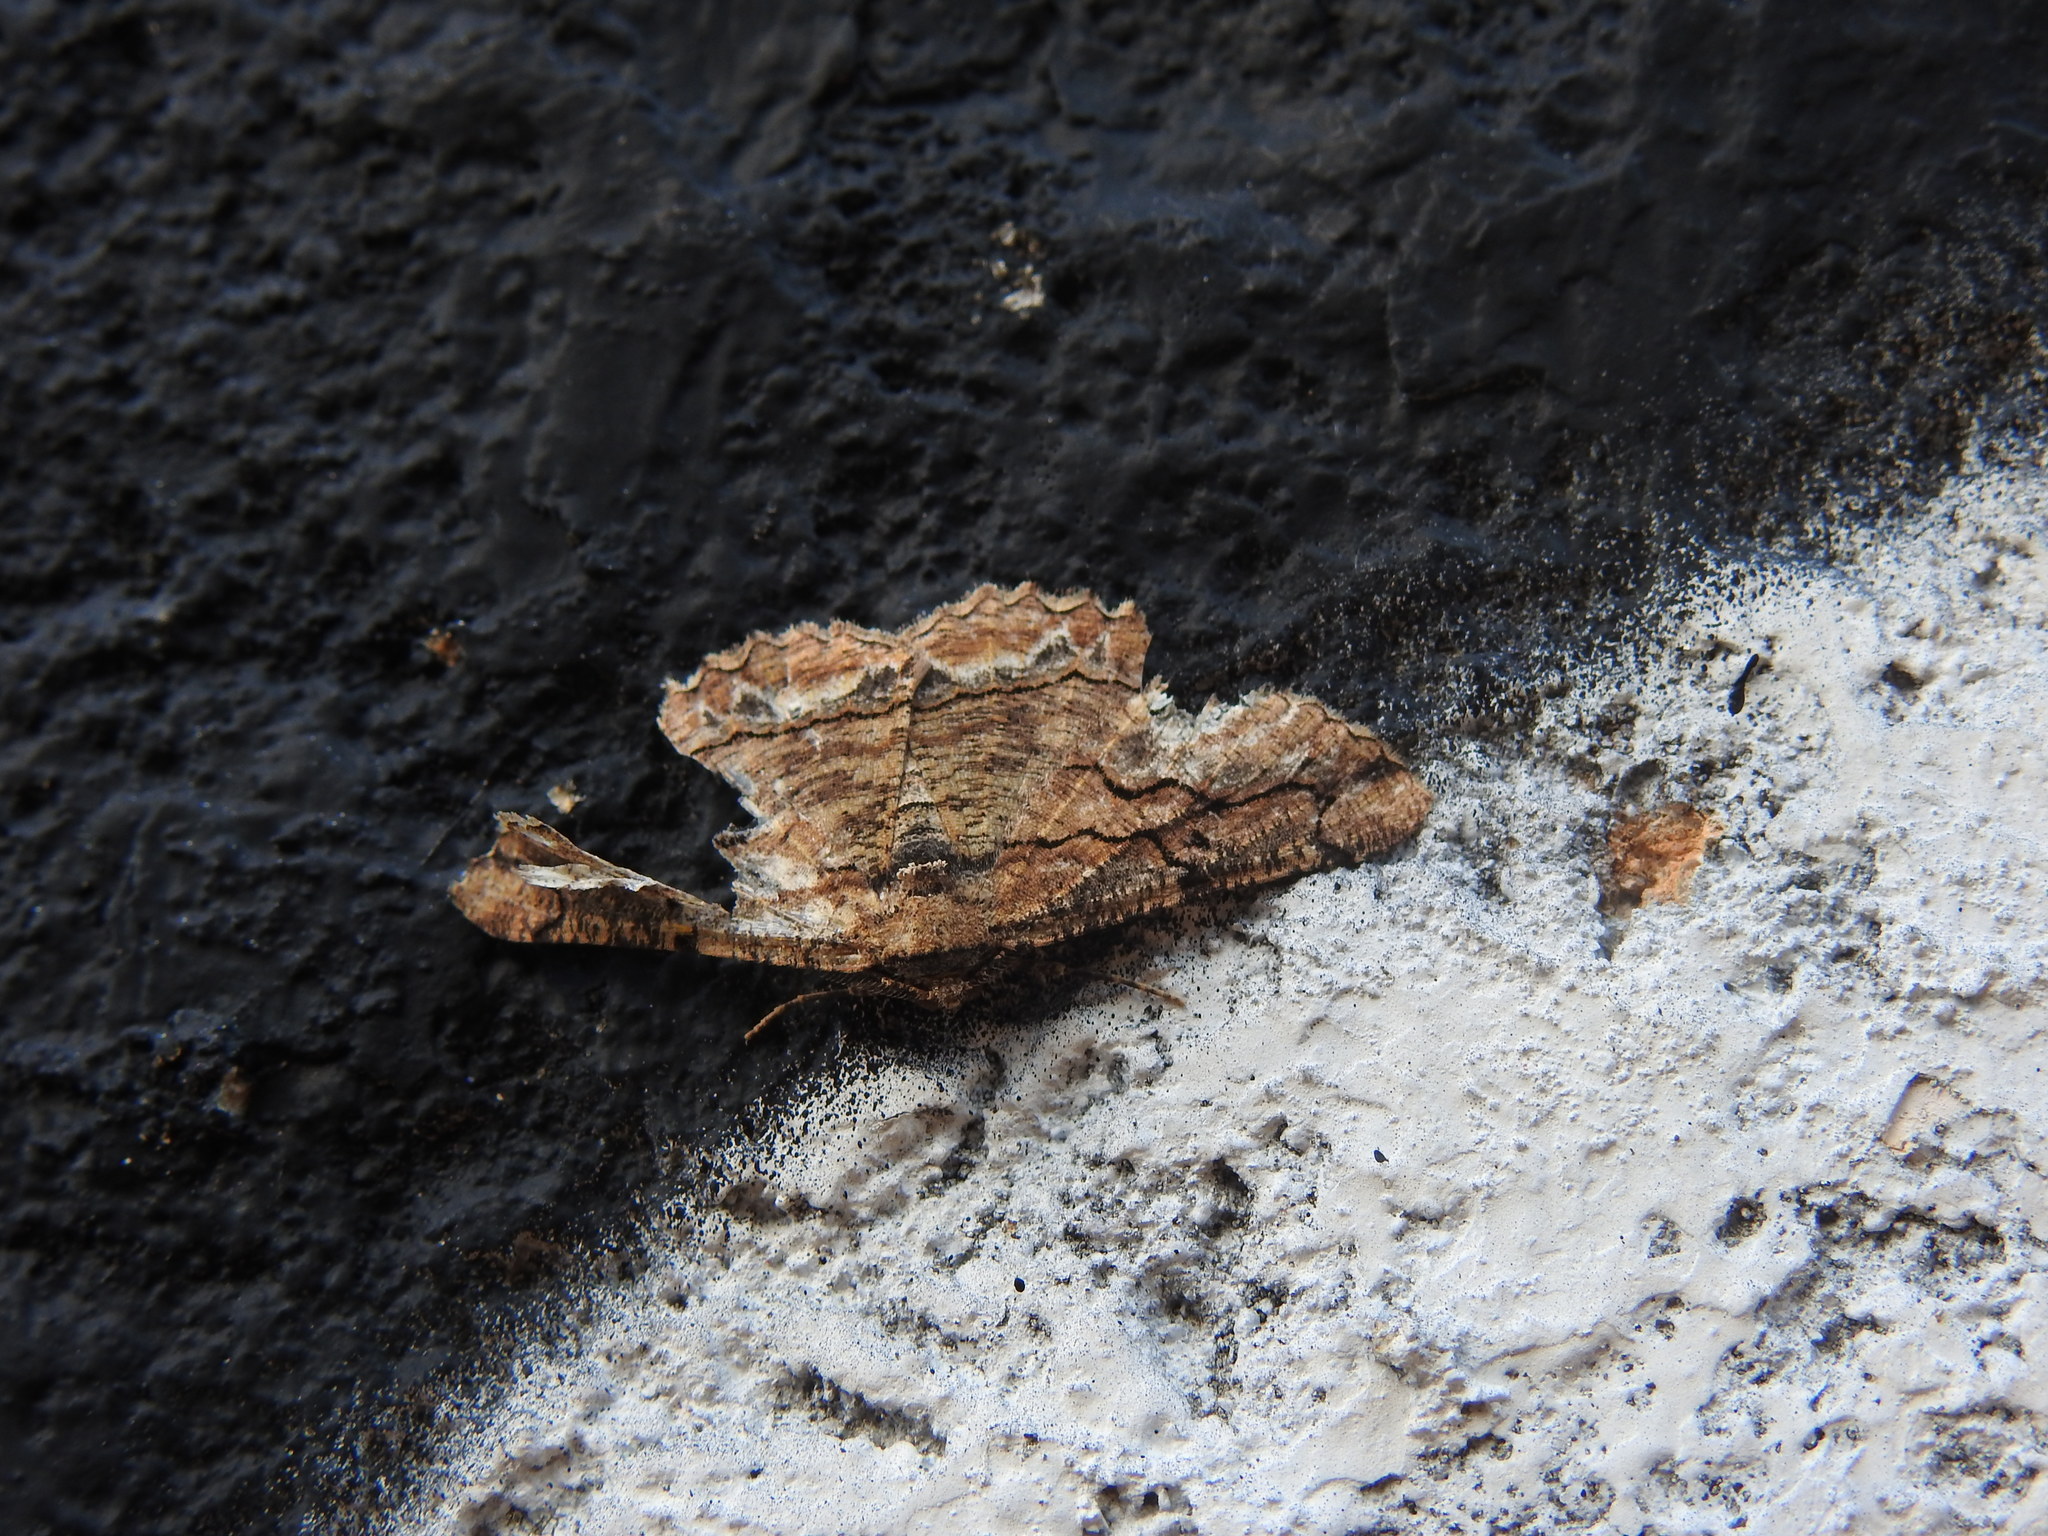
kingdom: Animalia
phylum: Arthropoda
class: Insecta
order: Lepidoptera
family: Geometridae
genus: Menophra
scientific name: Menophra japygiaria
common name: Brassy waved umber
